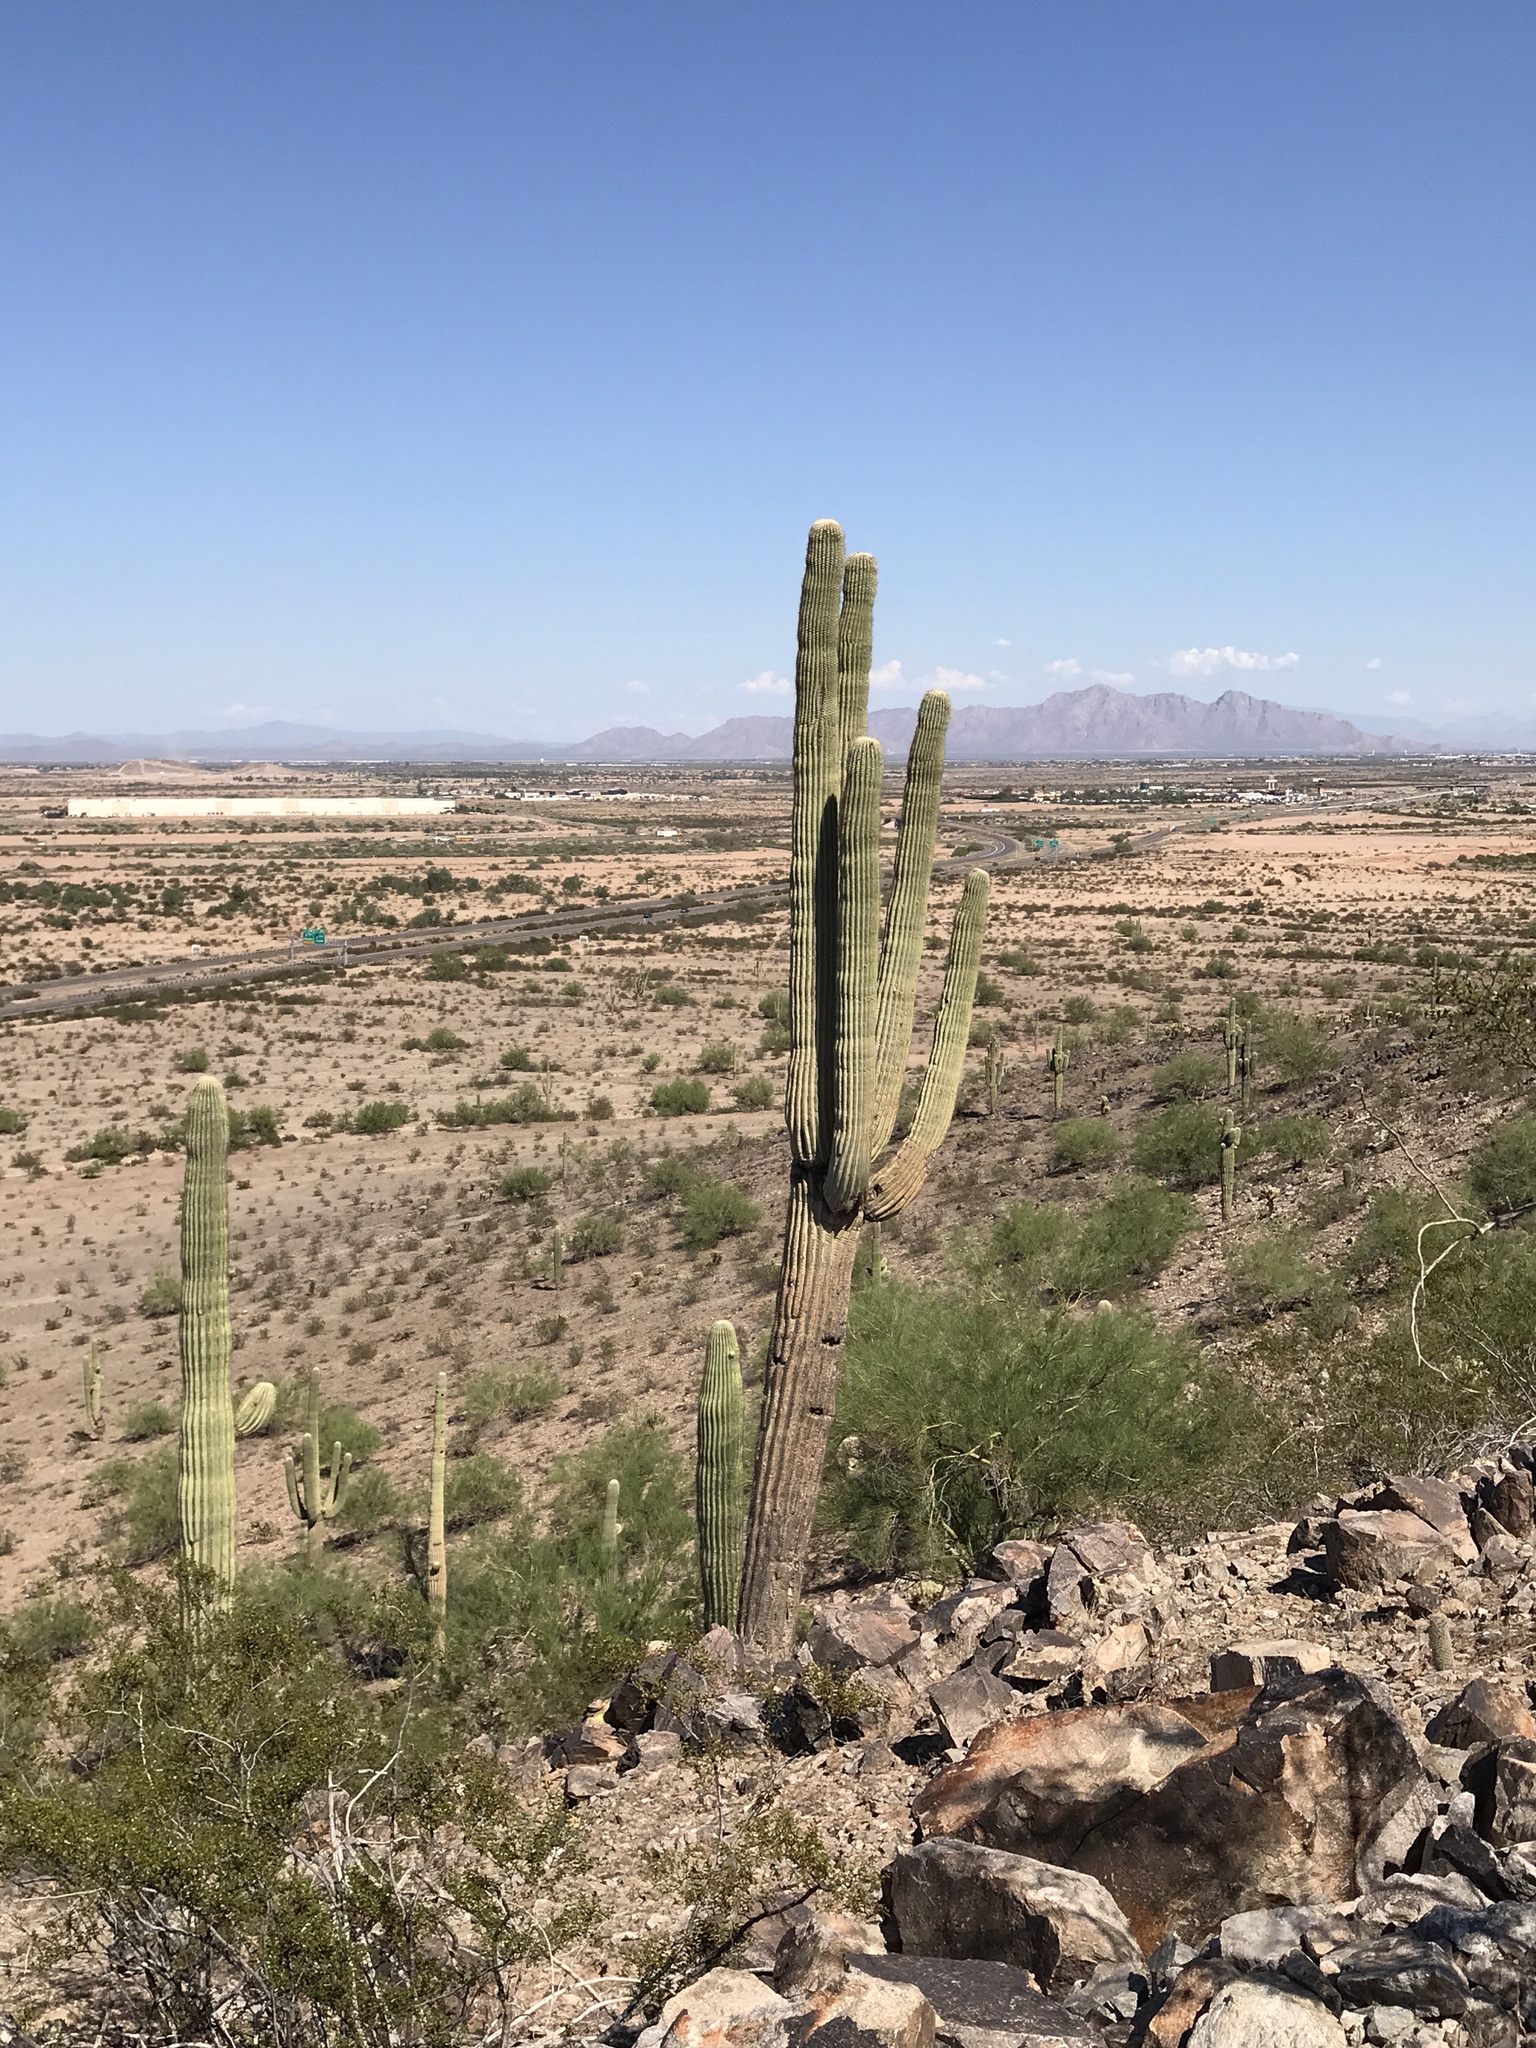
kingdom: Plantae
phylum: Tracheophyta
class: Magnoliopsida
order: Caryophyllales
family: Cactaceae
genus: Carnegiea
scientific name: Carnegiea gigantea
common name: Saguaro
